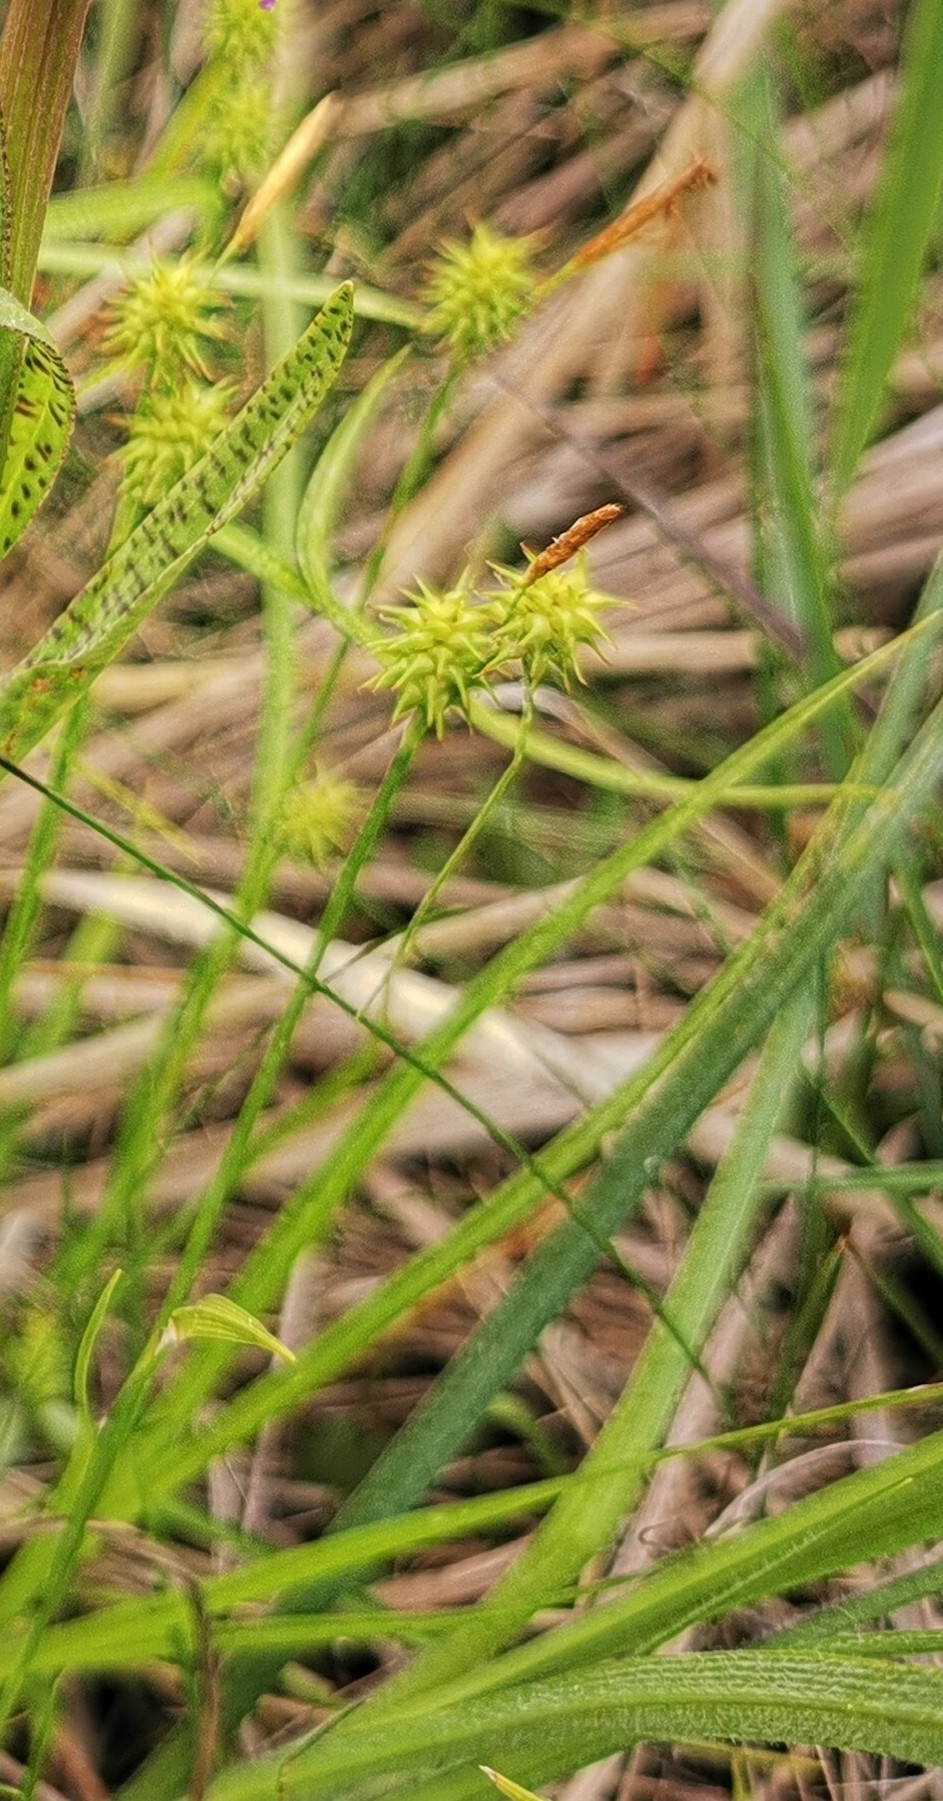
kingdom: Plantae
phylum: Tracheophyta
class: Liliopsida
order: Poales
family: Cyperaceae
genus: Carex
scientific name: Carex flava
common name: Large yellow-sedge
